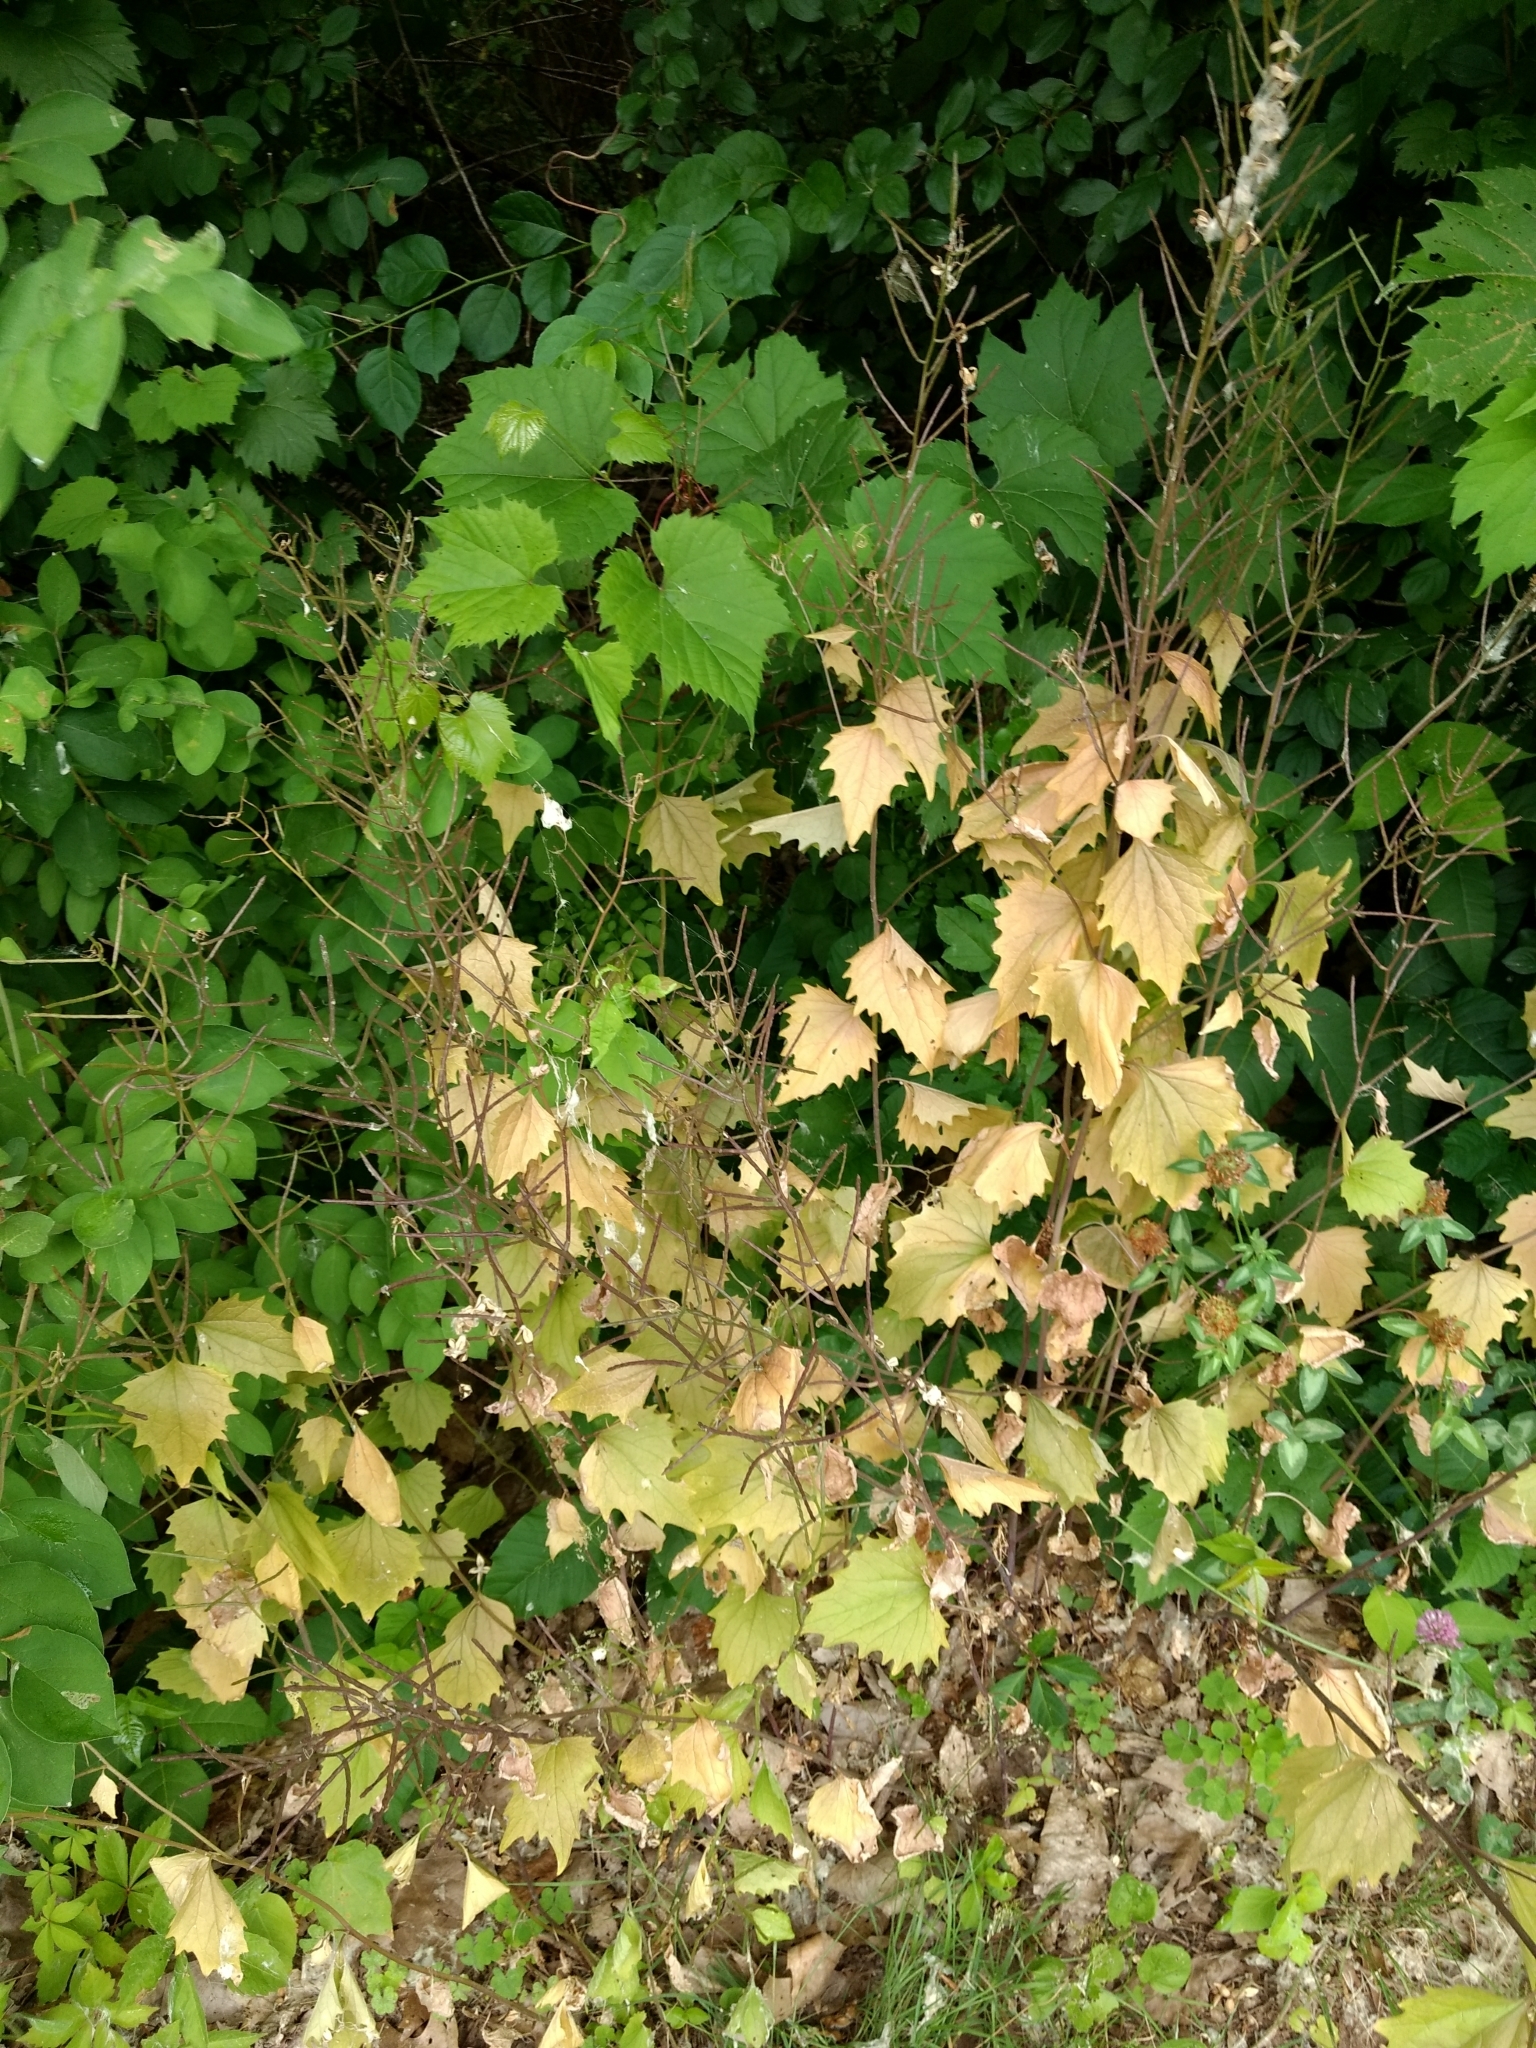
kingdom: Plantae
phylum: Tracheophyta
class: Magnoliopsida
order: Brassicales
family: Brassicaceae
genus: Alliaria
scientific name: Alliaria petiolata
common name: Garlic mustard
